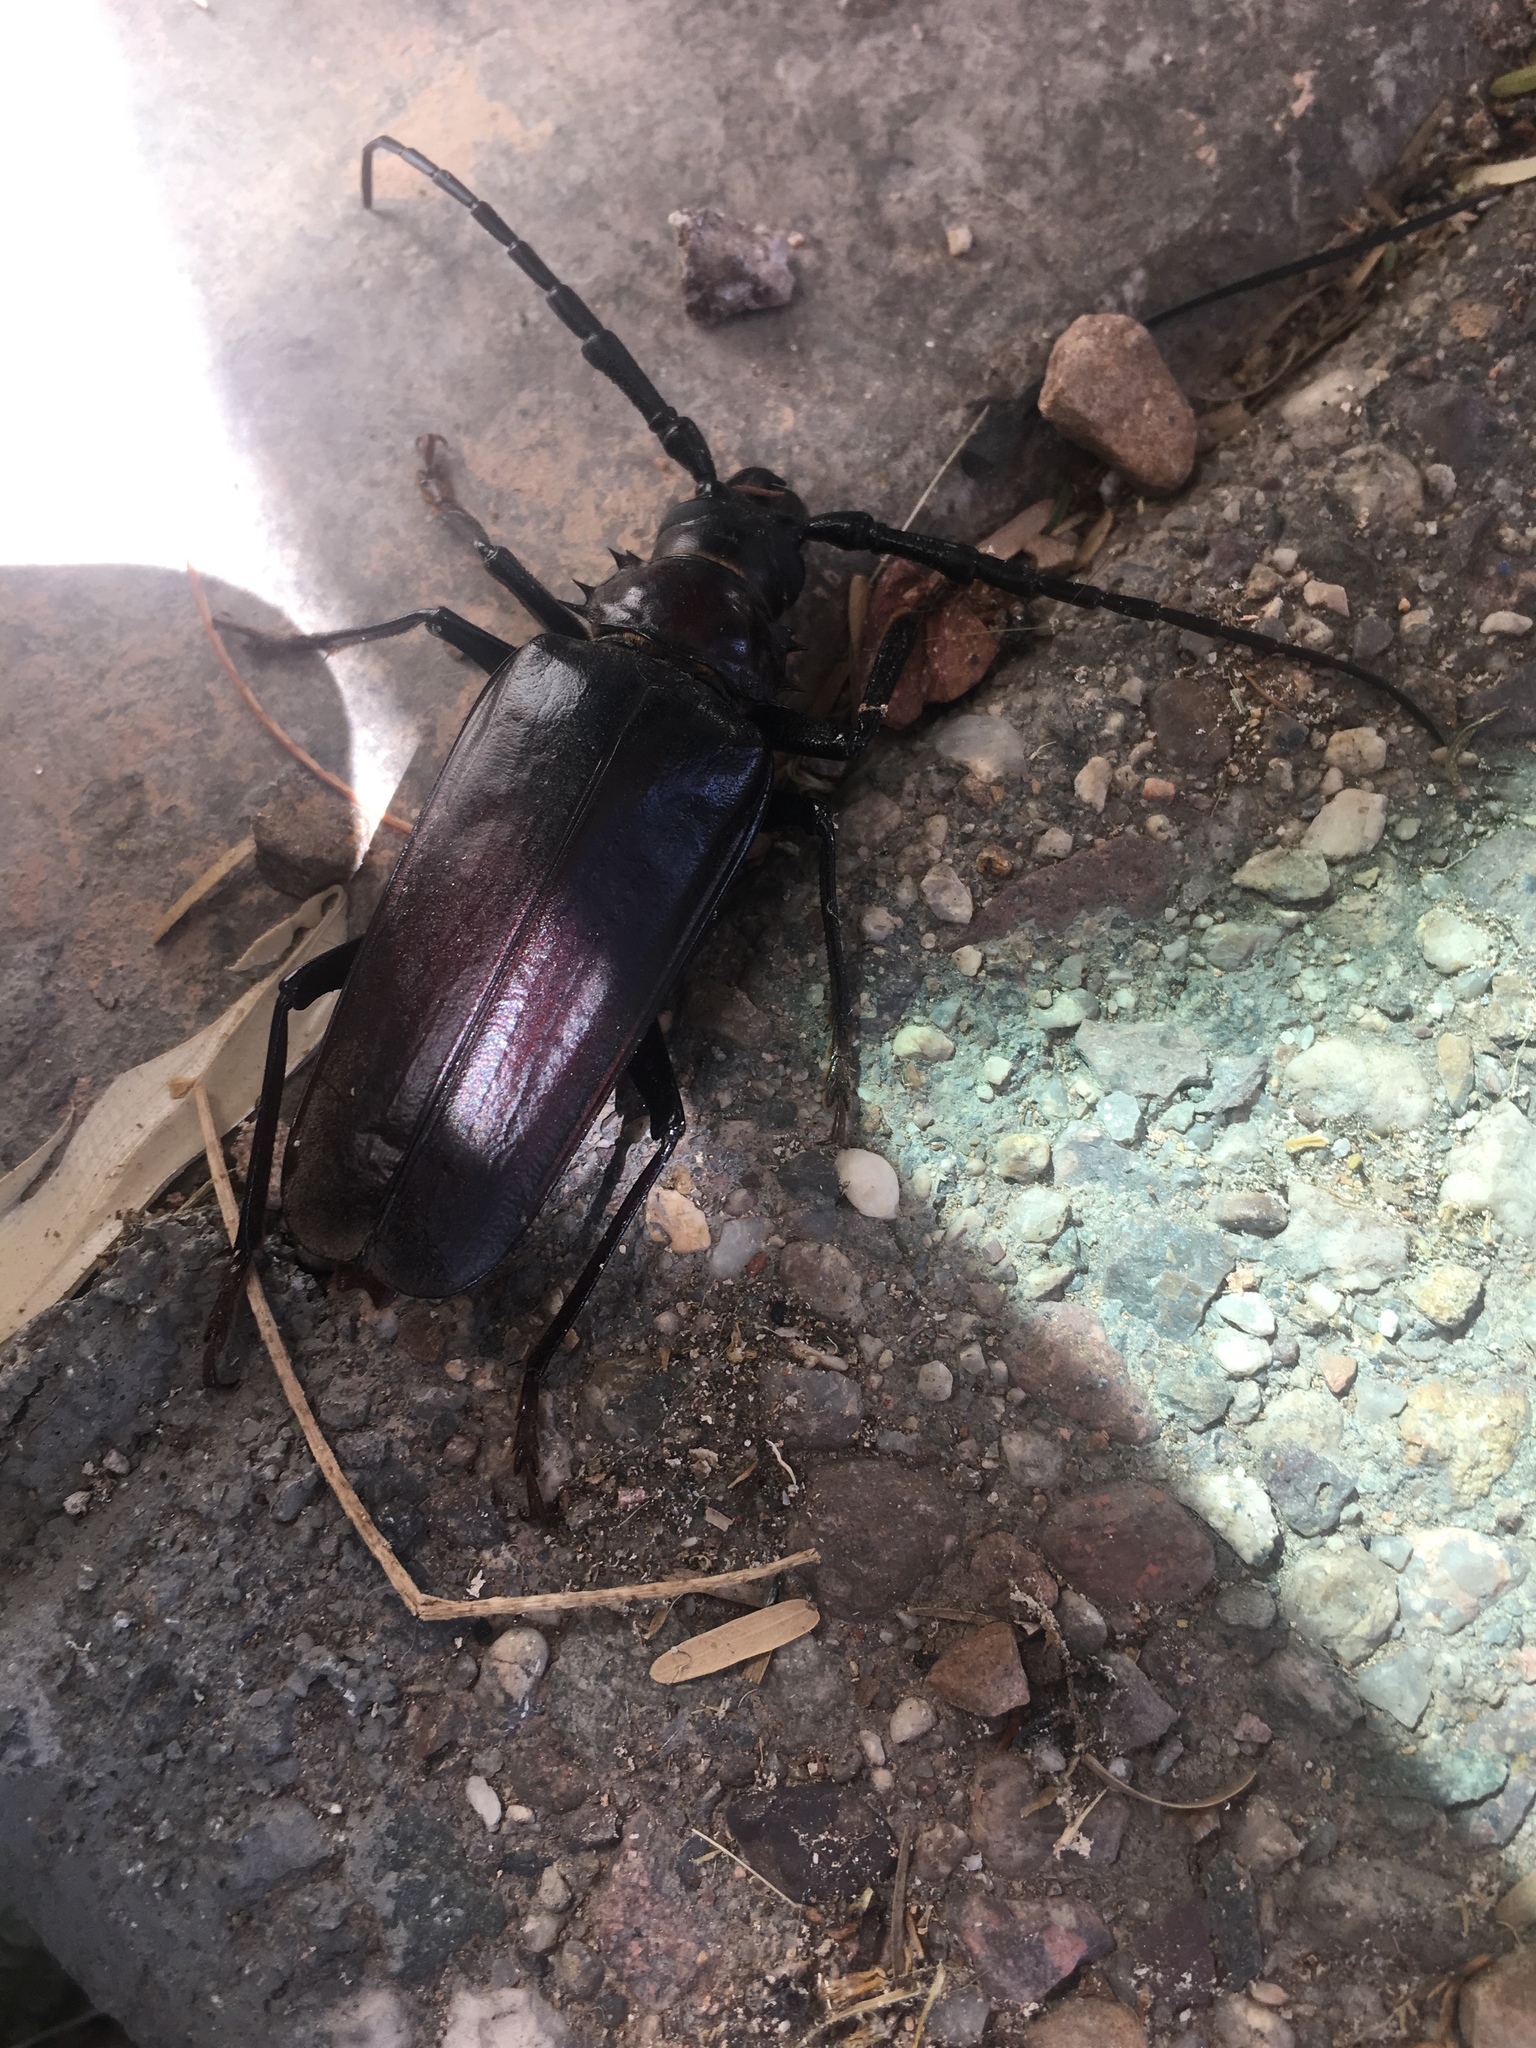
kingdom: Animalia
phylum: Arthropoda
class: Insecta
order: Coleoptera
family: Cerambycidae
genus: Derobrachus
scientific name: Derobrachus hovorei
